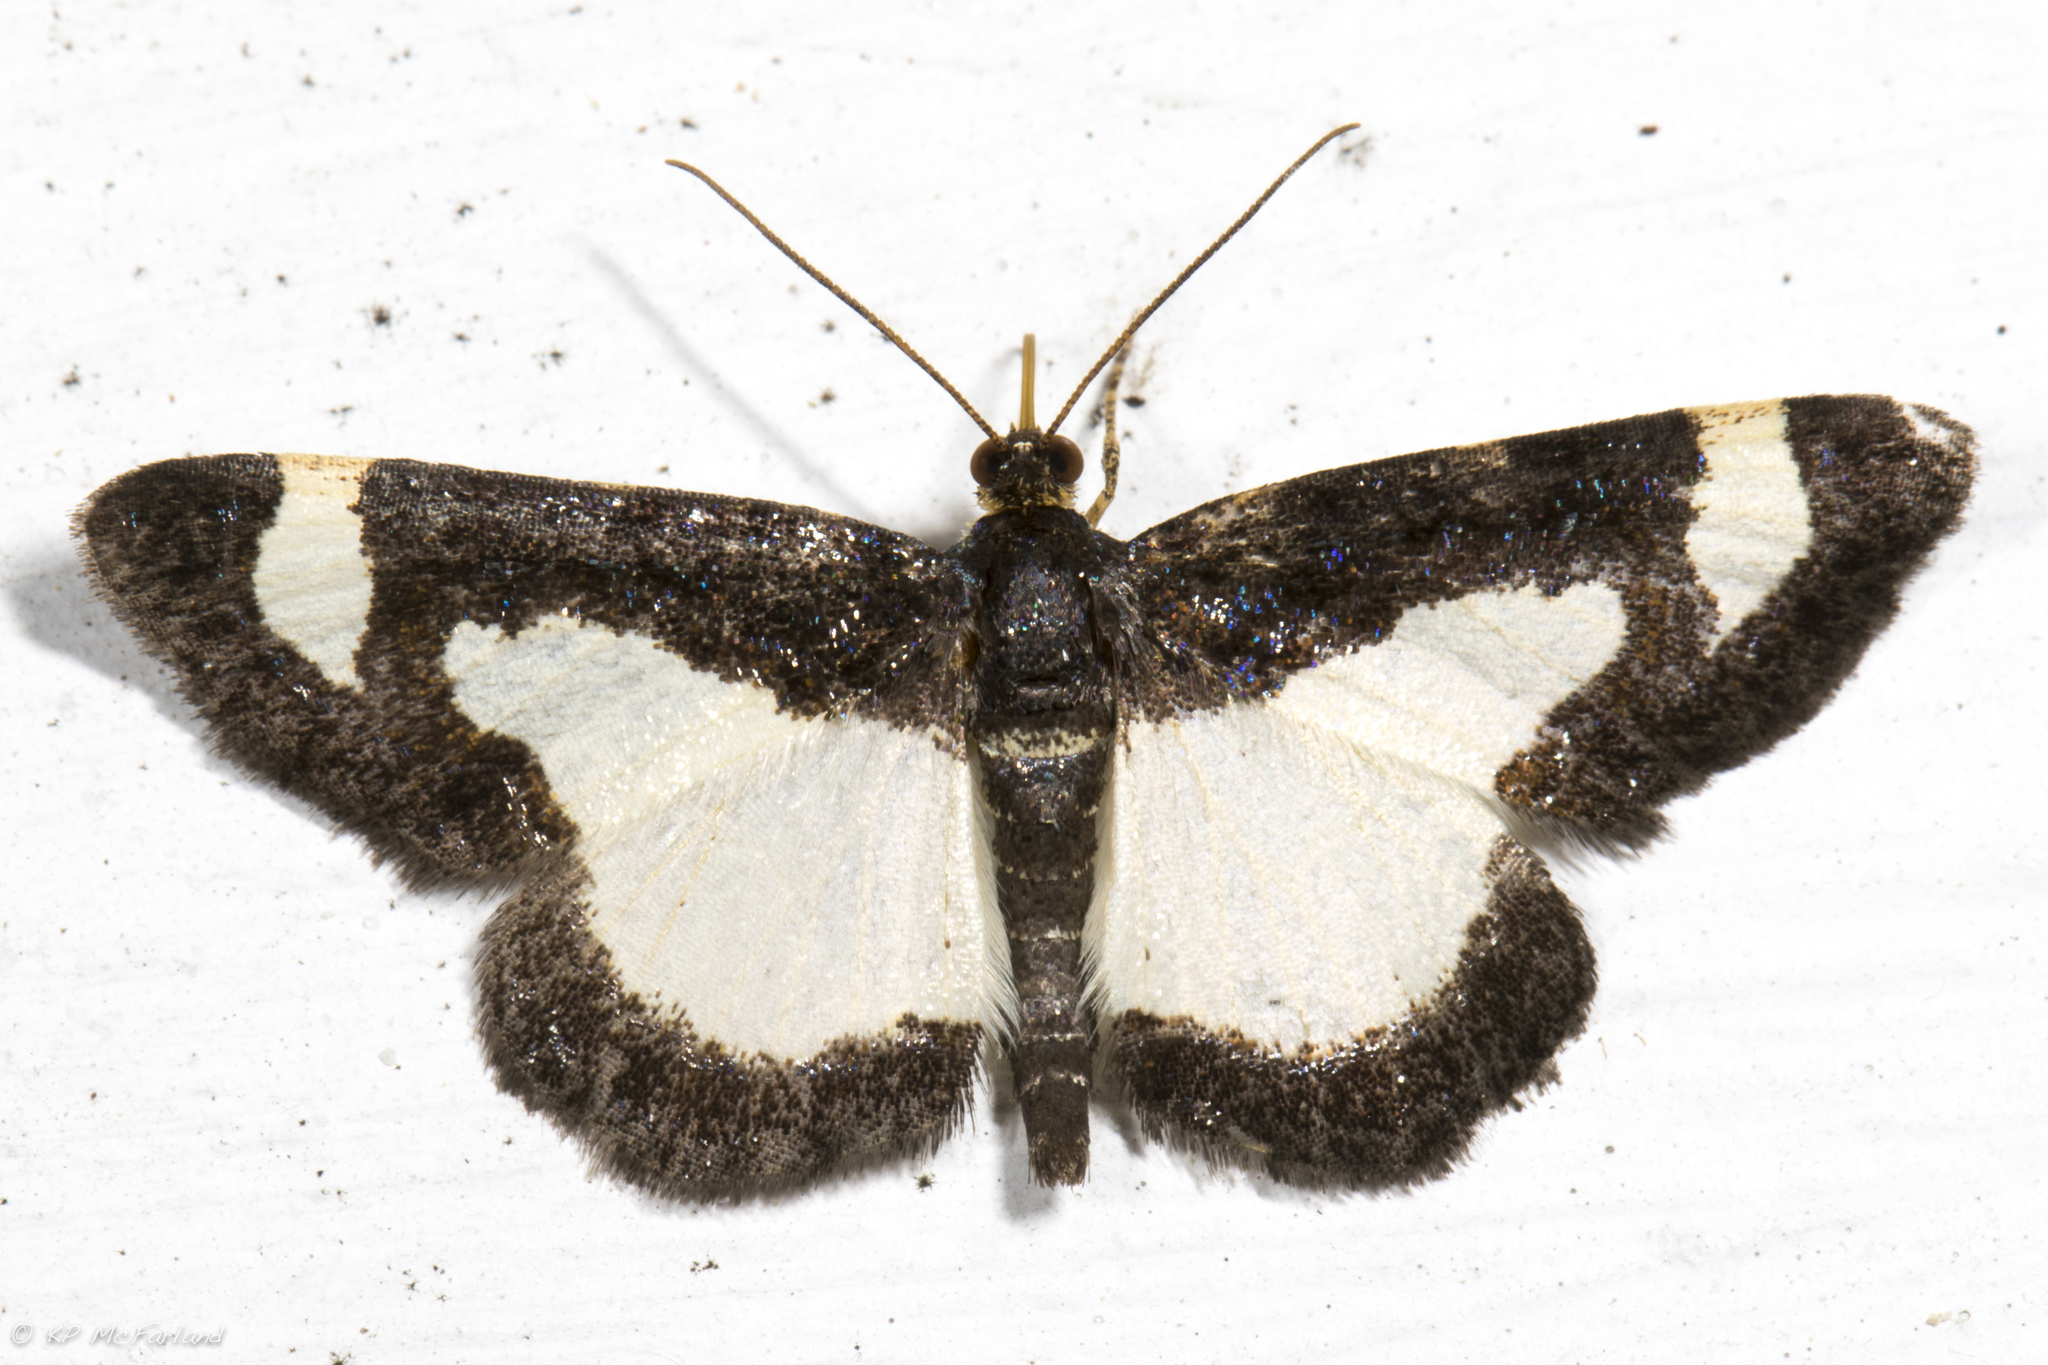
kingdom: Animalia
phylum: Arthropoda
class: Insecta
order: Lepidoptera
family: Geometridae
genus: Heliomata
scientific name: Heliomata cycladata
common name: Common spring moth
